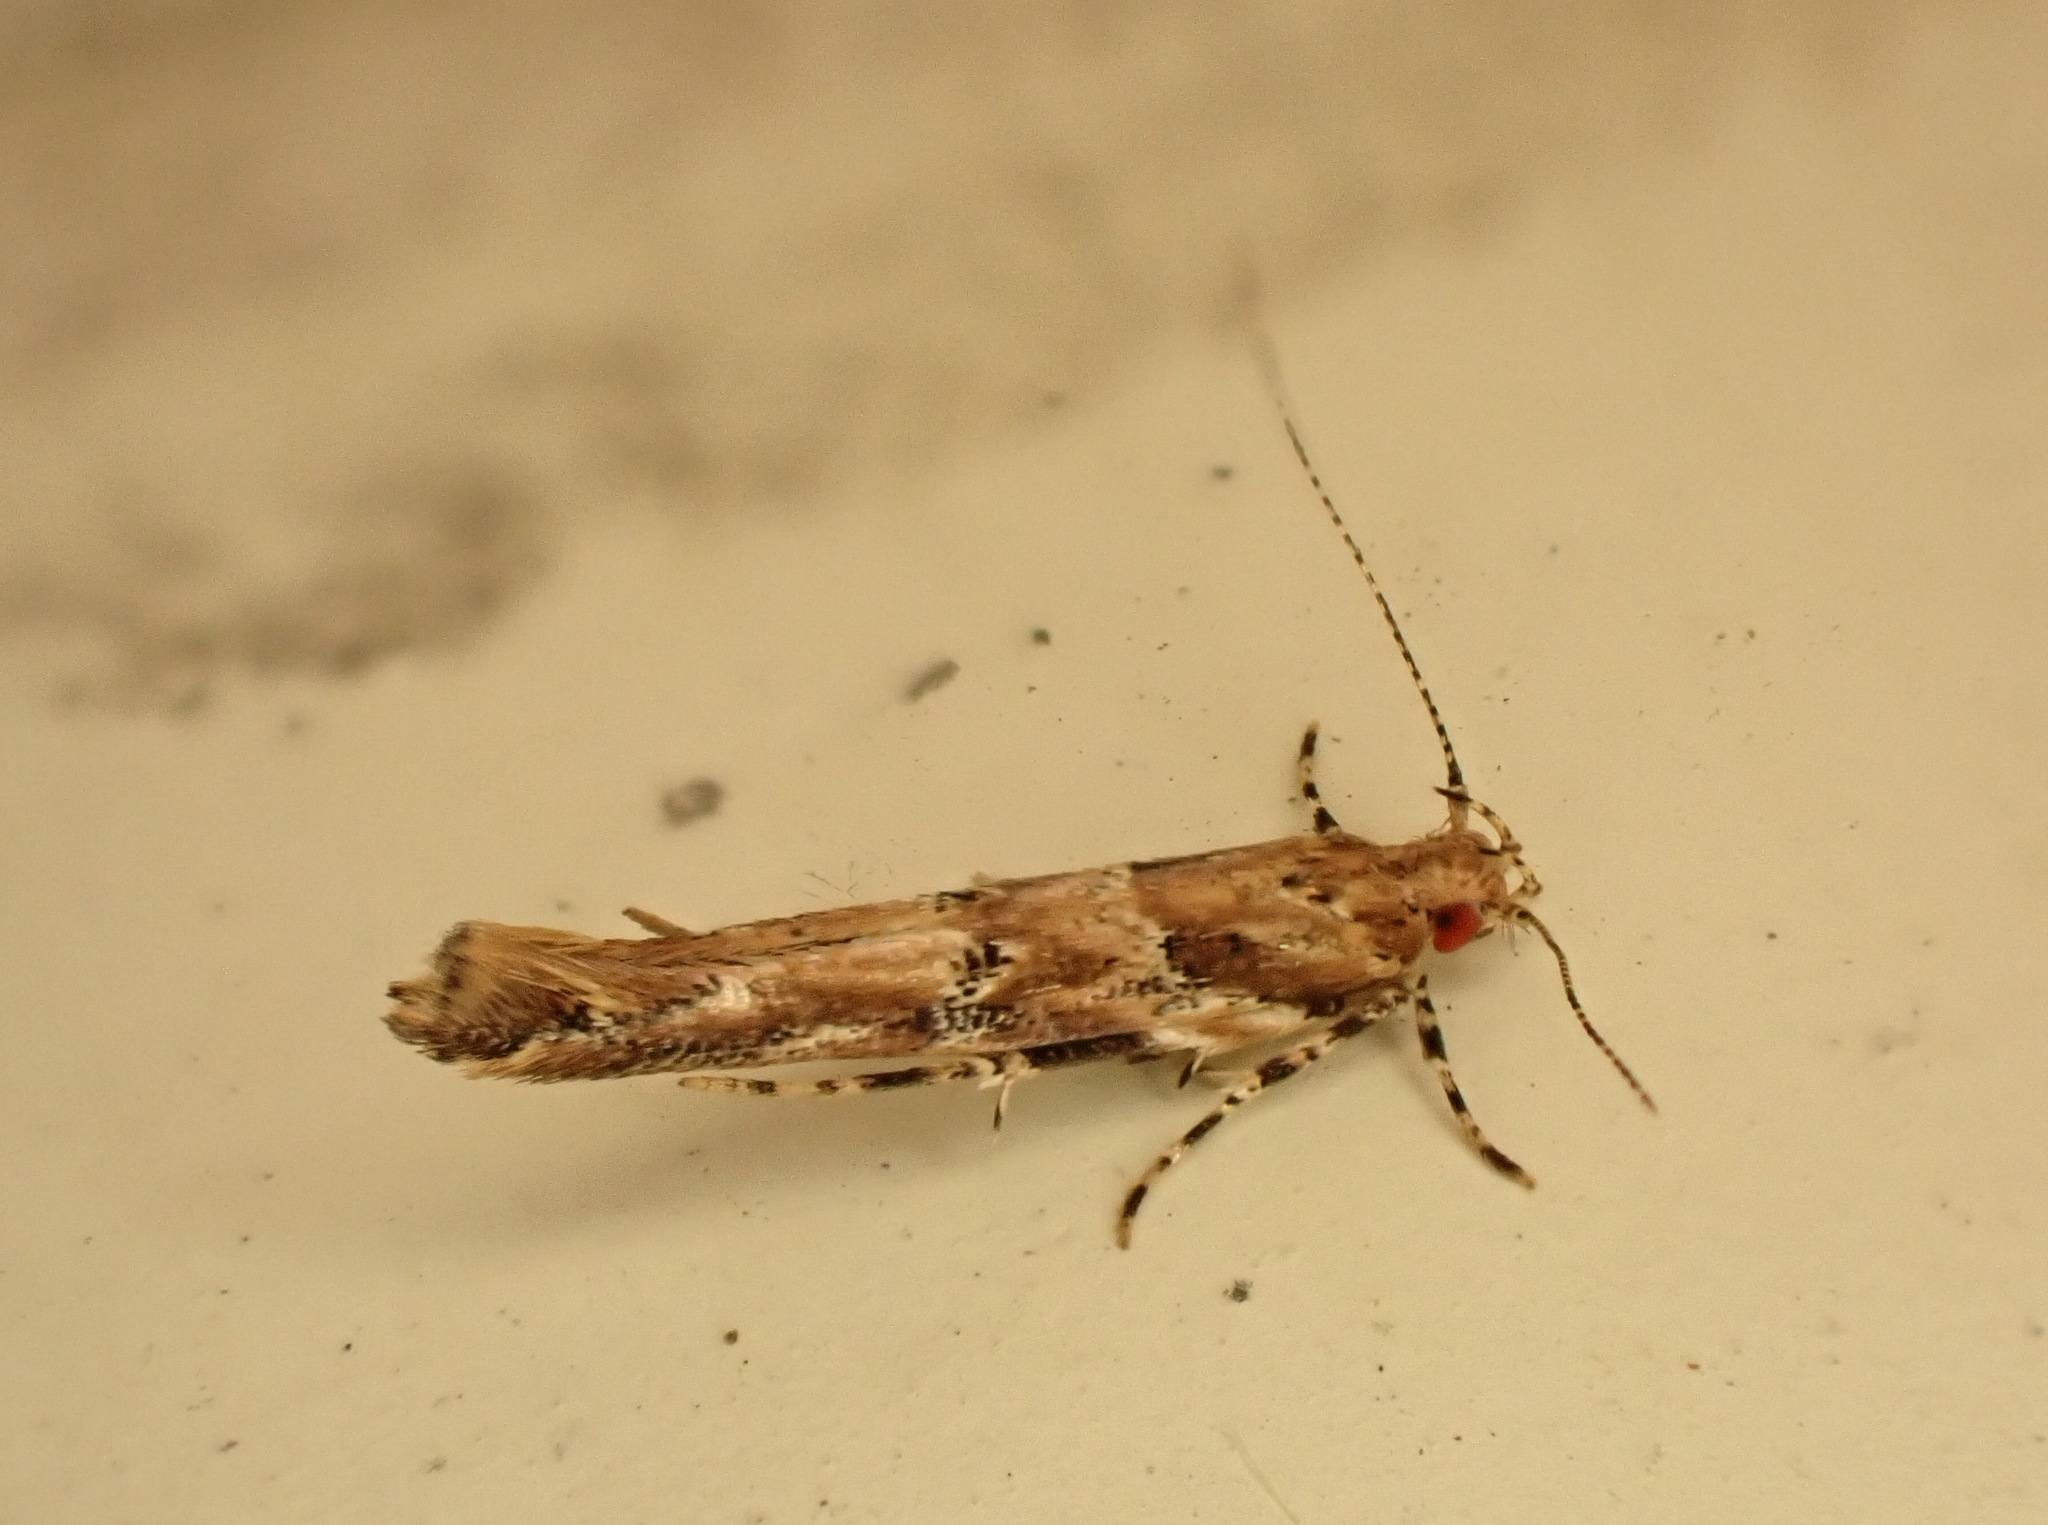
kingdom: Animalia
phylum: Arthropoda
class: Insecta
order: Lepidoptera
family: Cosmopterigidae
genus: Pyroderces
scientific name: Pyroderces aellotricha
